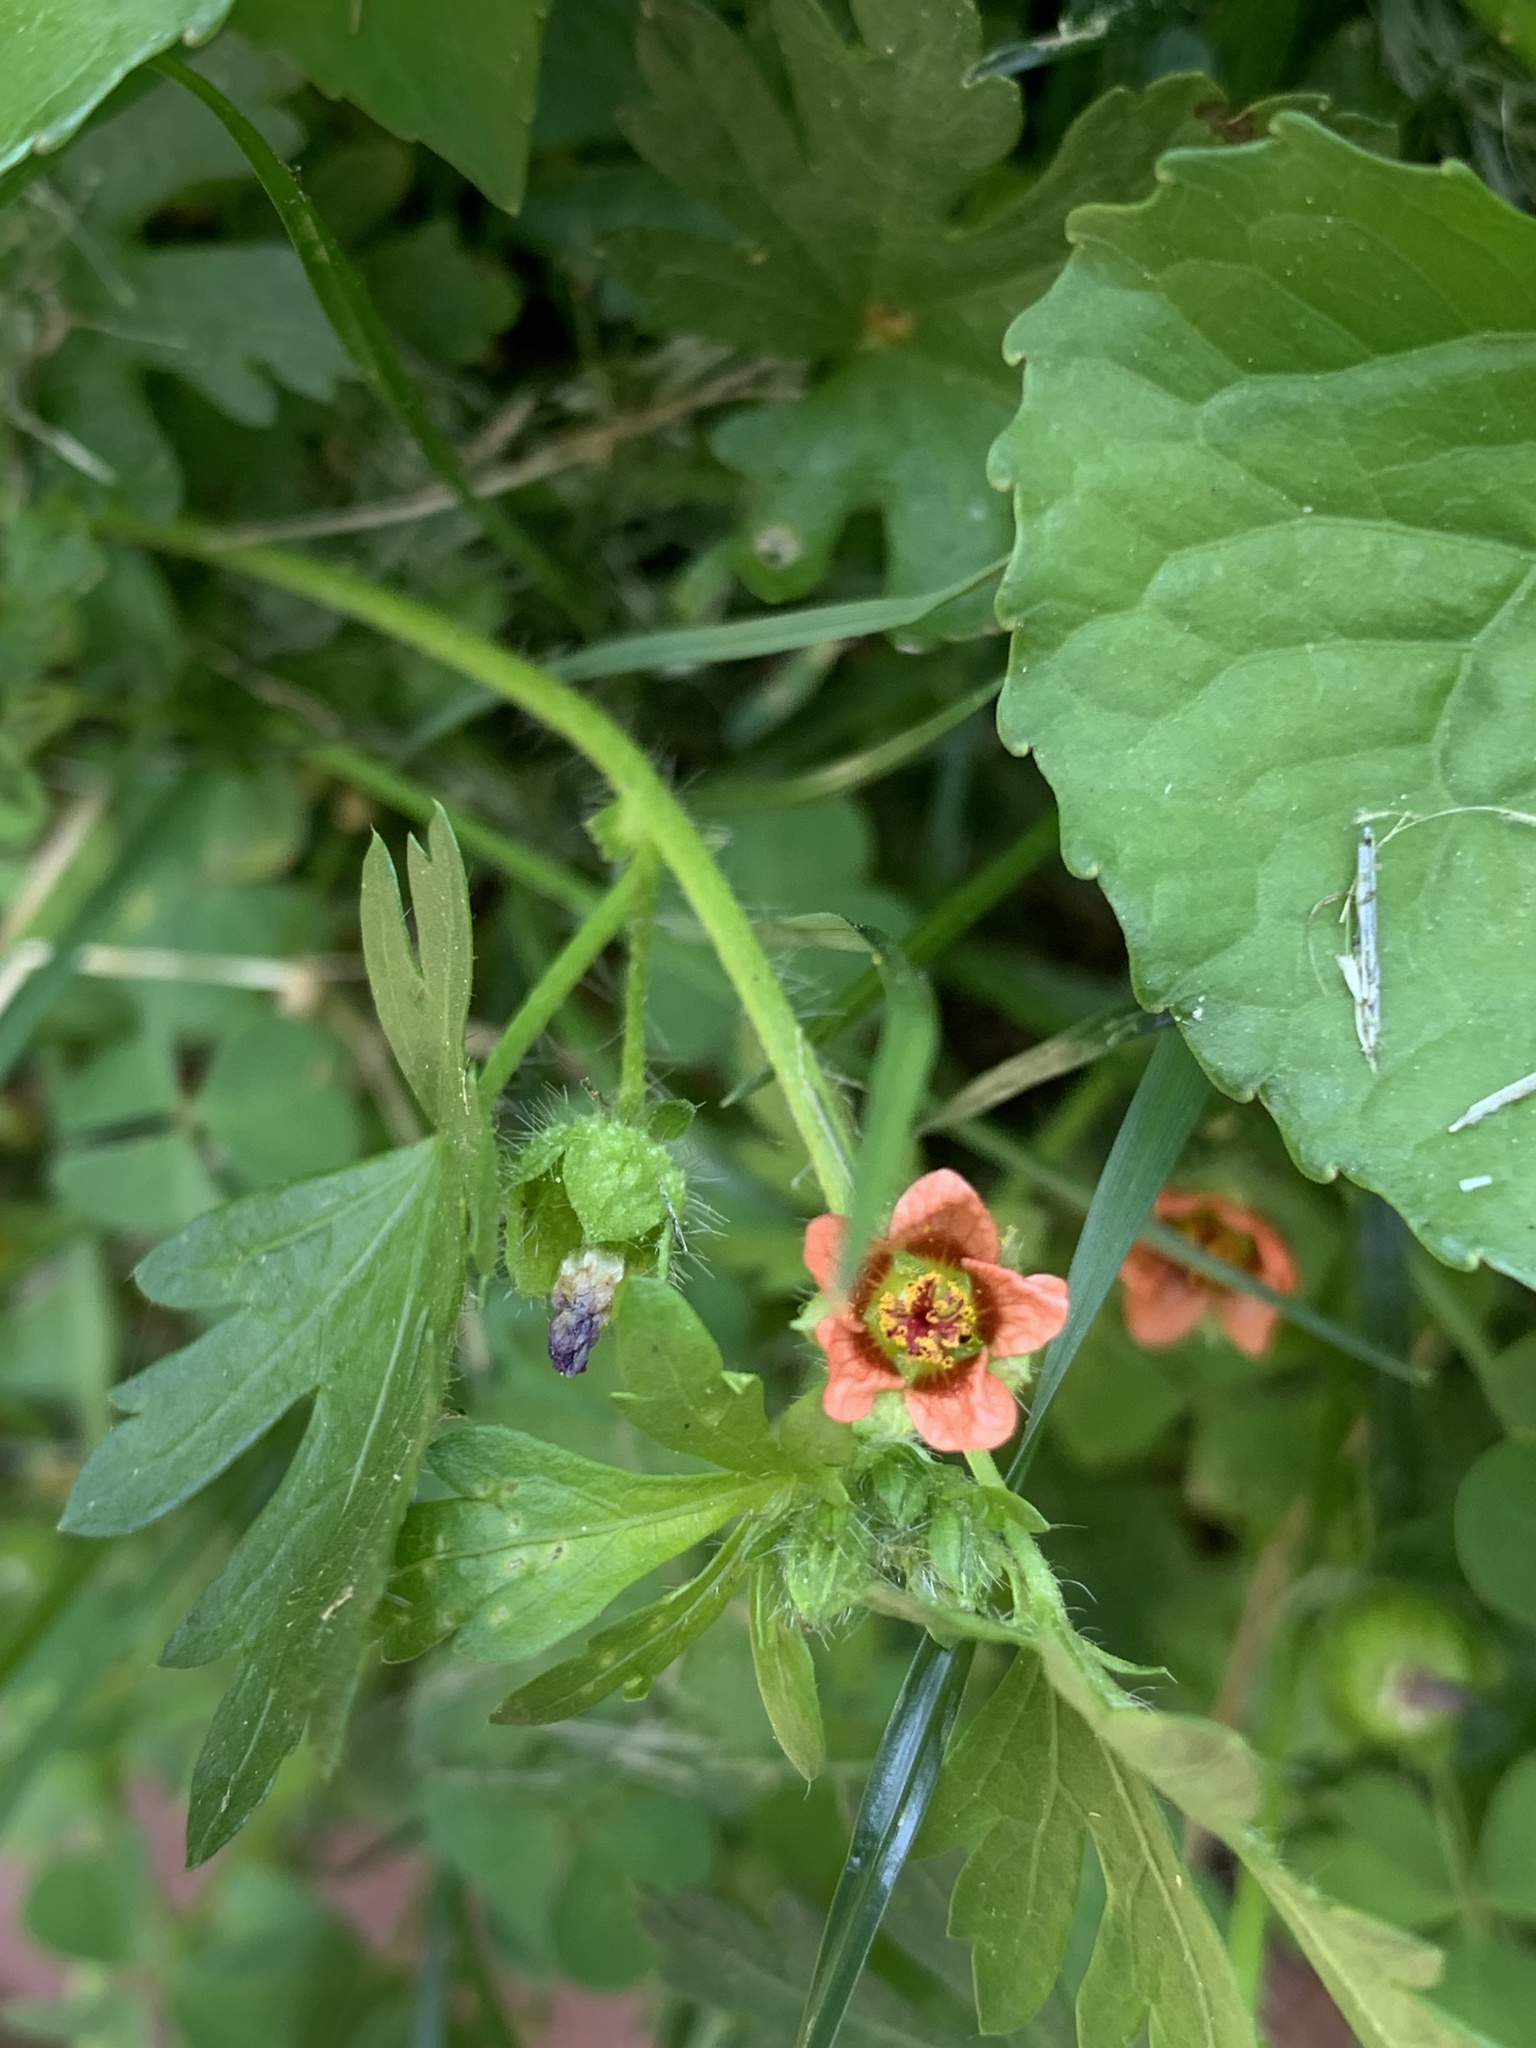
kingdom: Plantae
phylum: Tracheophyta
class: Magnoliopsida
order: Malvales
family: Malvaceae
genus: Modiola
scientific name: Modiola caroliniana
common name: Carolina bristlemallow
